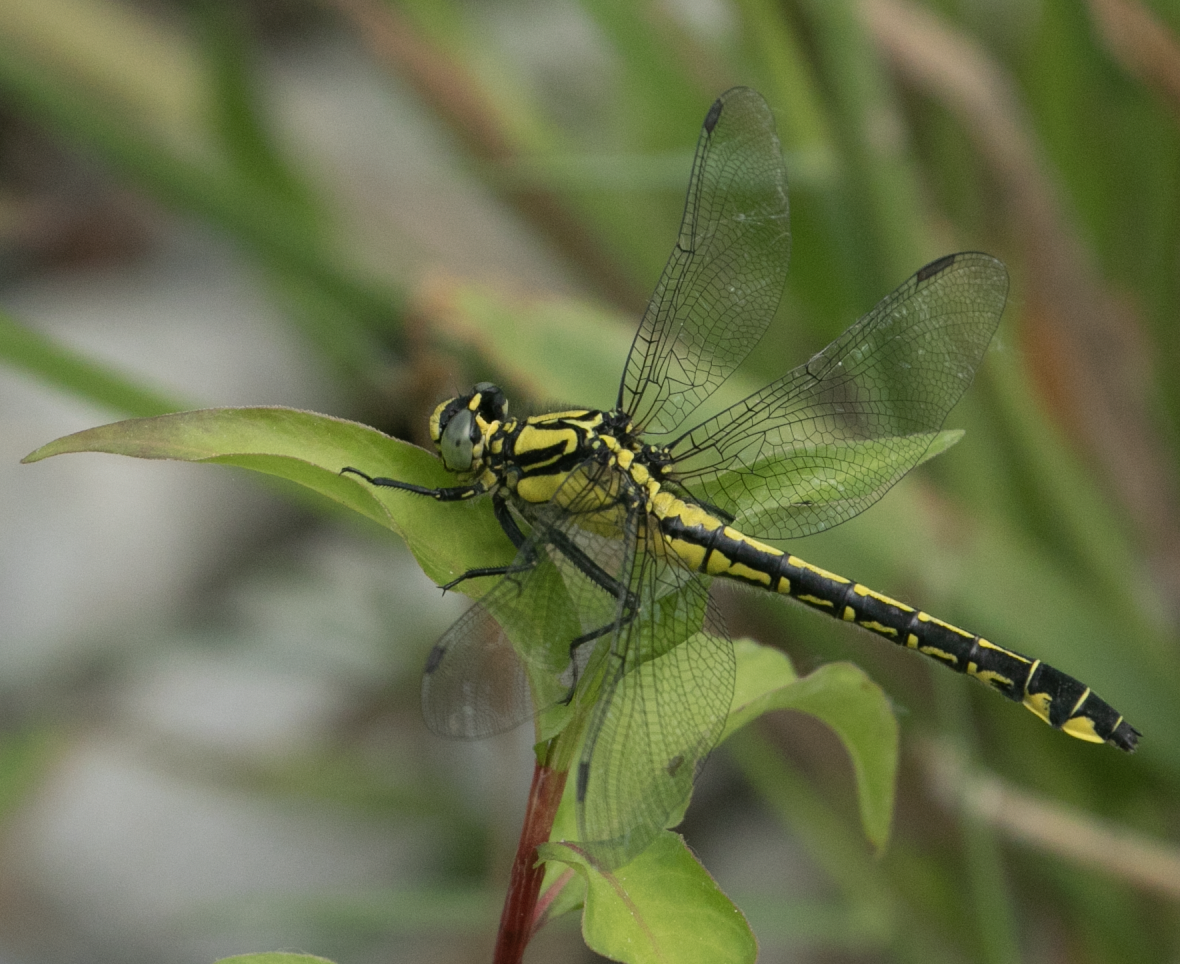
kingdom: Animalia
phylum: Arthropoda
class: Insecta
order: Odonata
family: Gomphidae
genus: Gomphus
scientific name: Gomphus vulgatissimus
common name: Club-tailed dragonfly
